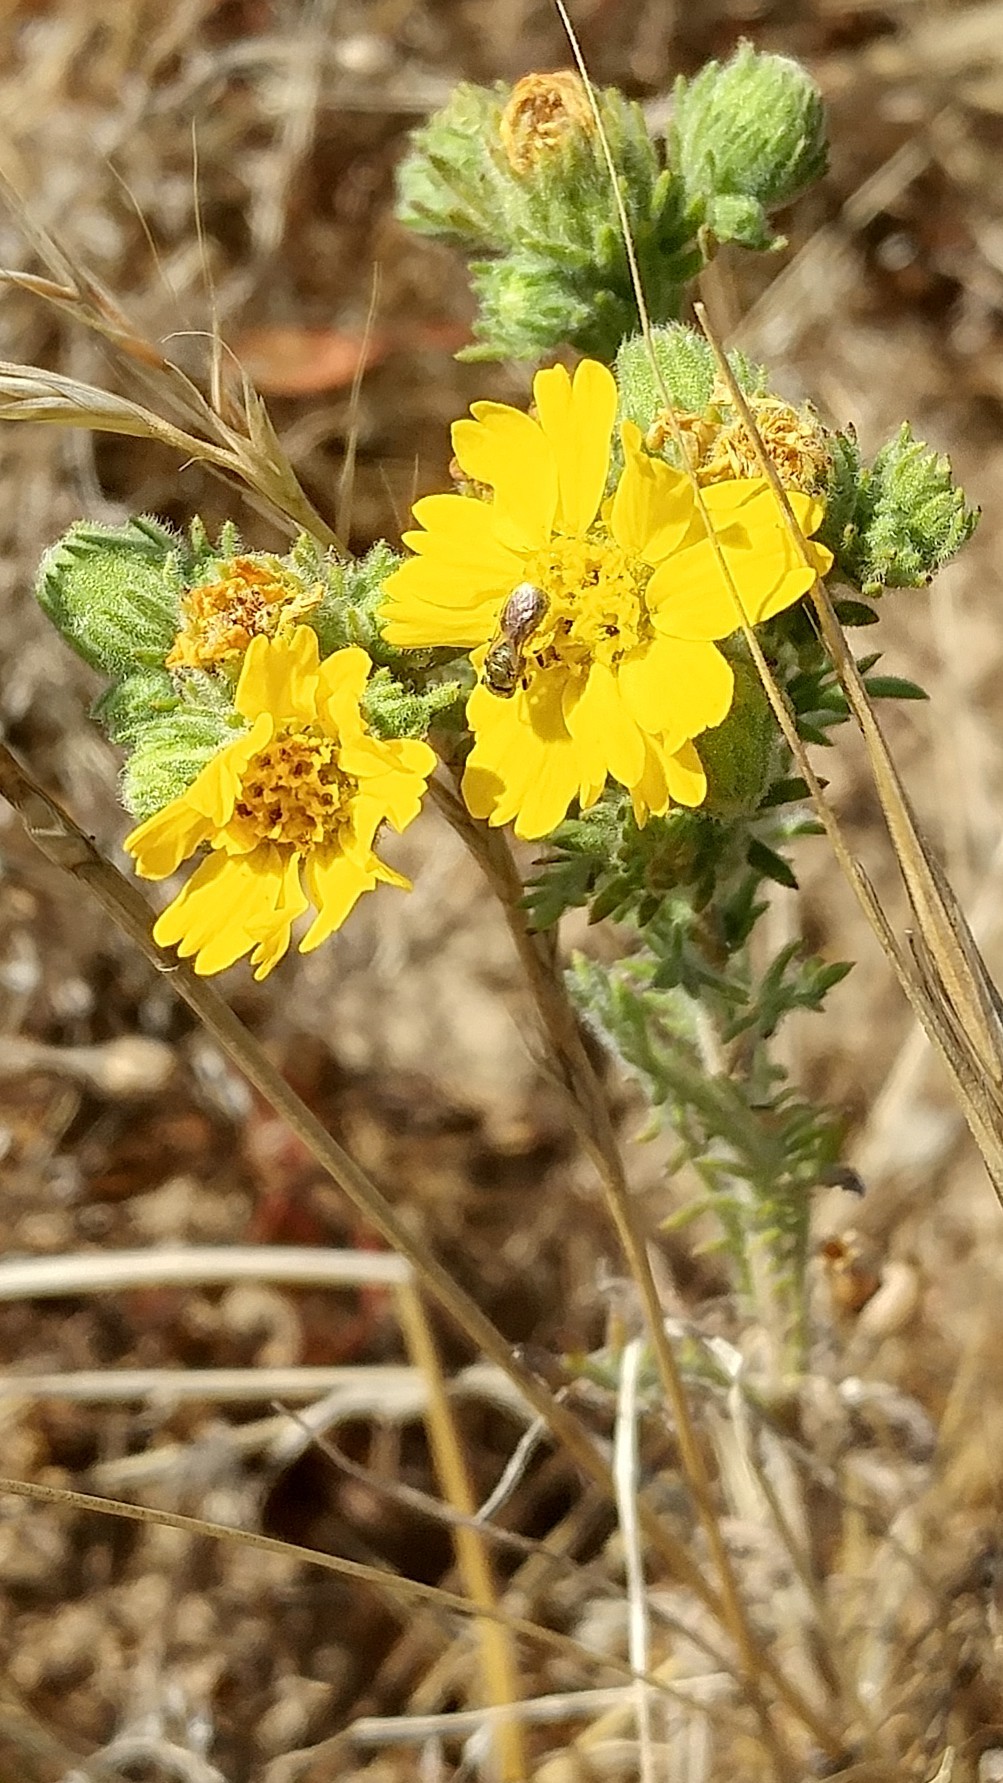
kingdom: Plantae
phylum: Tracheophyta
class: Magnoliopsida
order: Asterales
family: Asteraceae
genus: Deinandra
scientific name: Deinandra increscens
